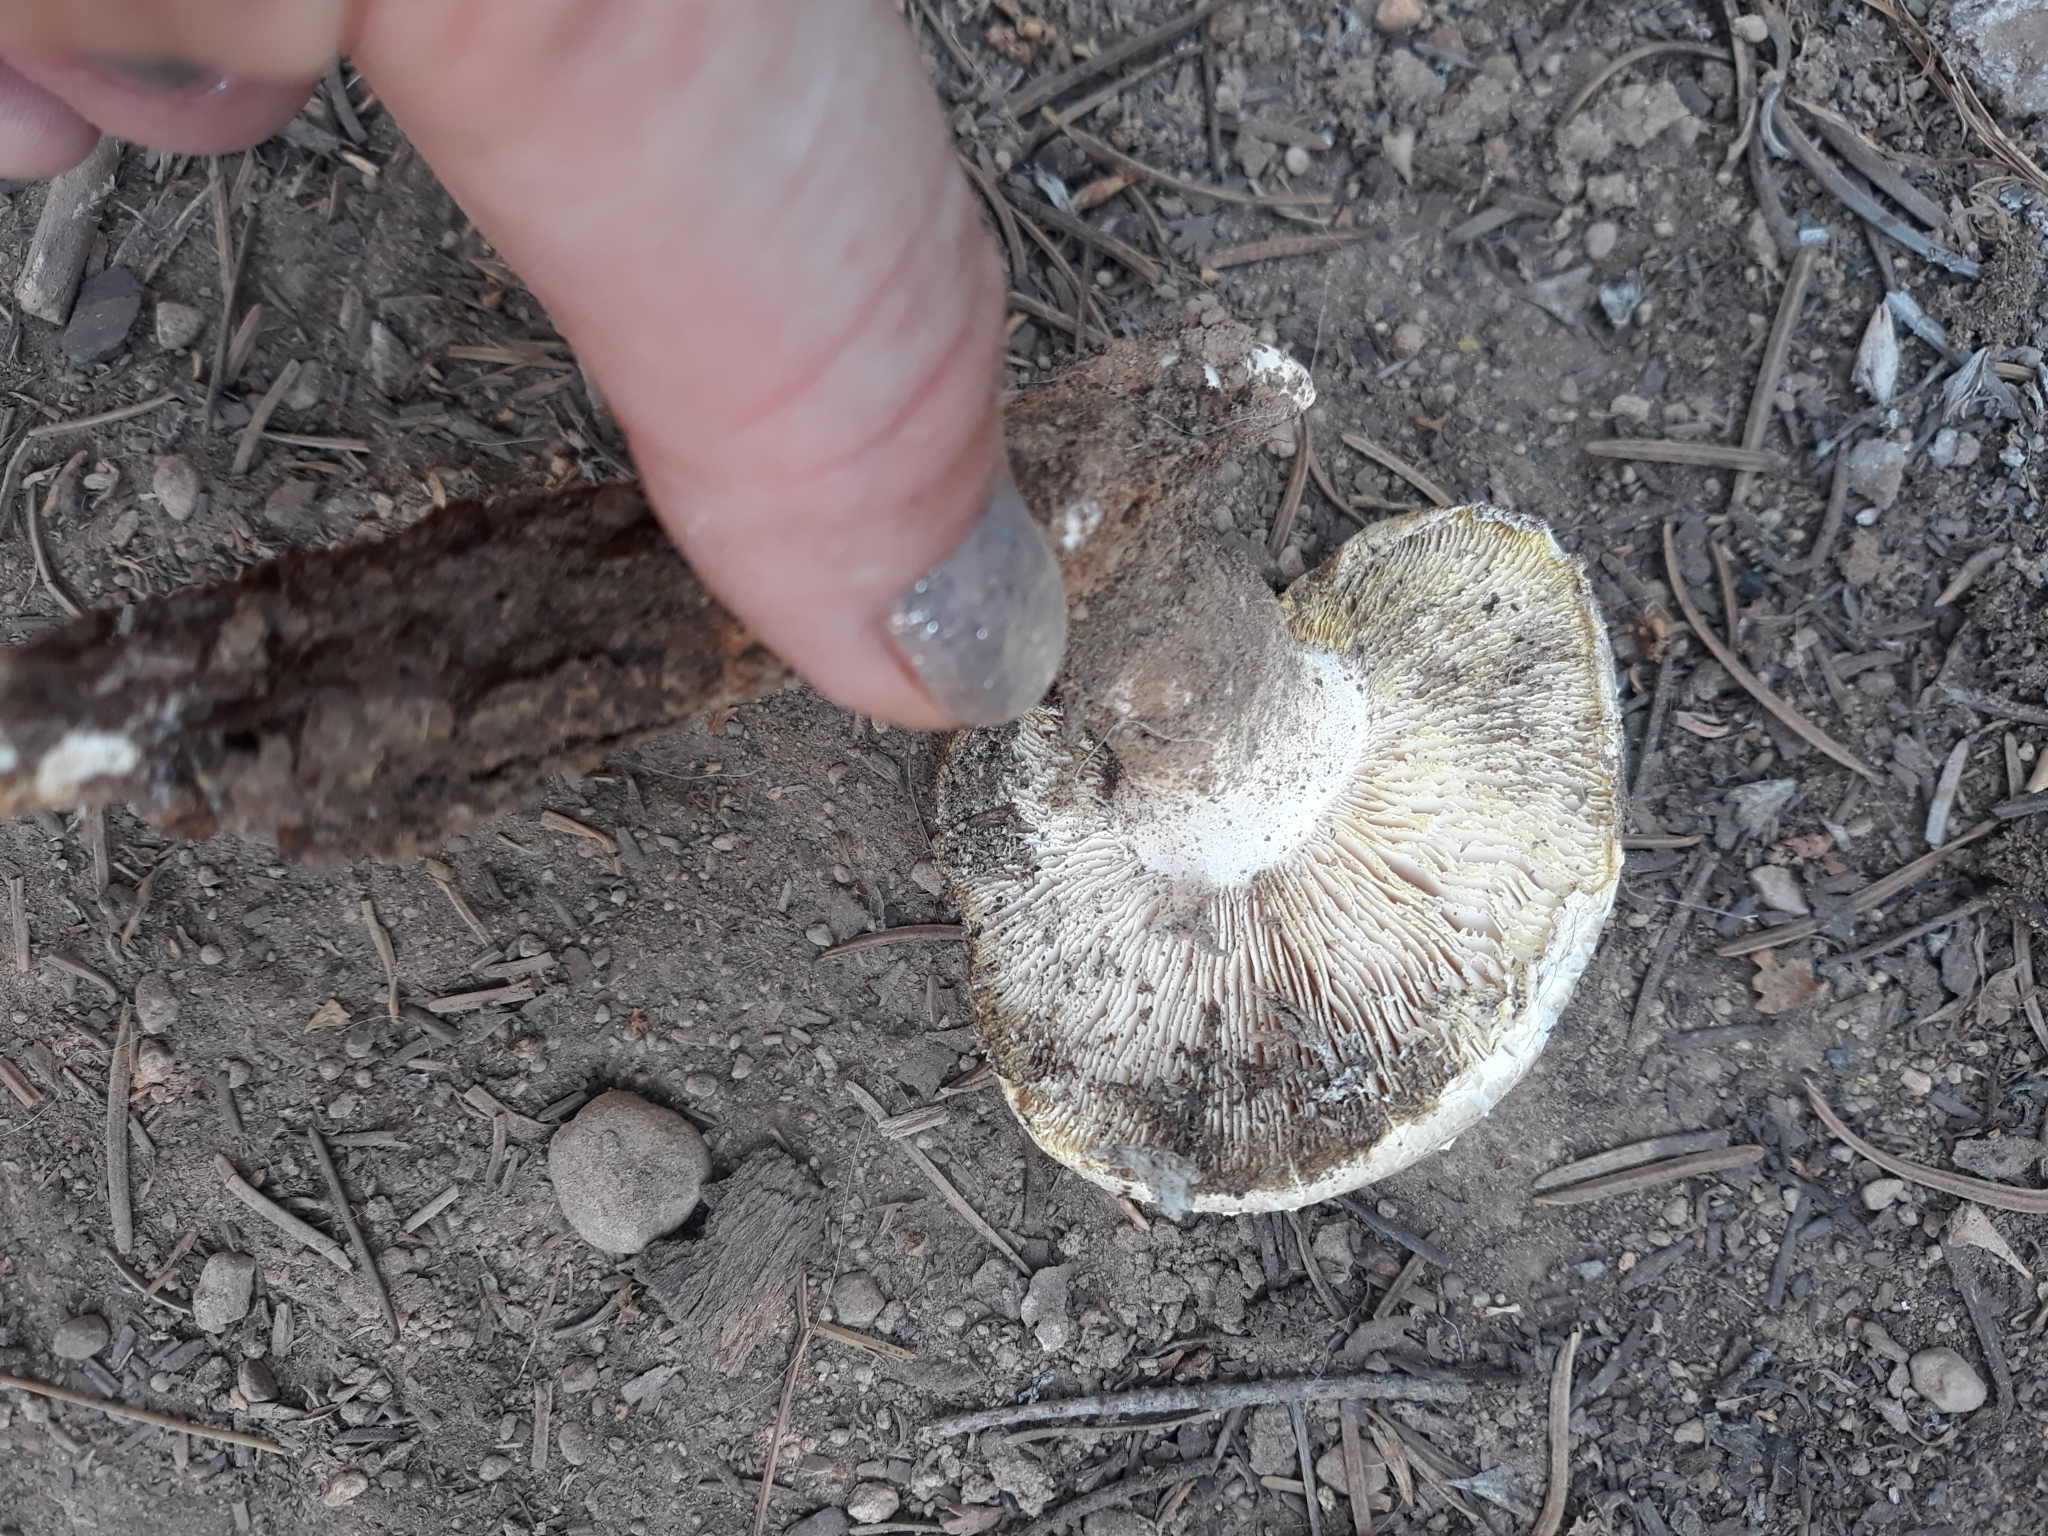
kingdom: Fungi
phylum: Basidiomycota
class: Agaricomycetes
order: Gloeophyllales
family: Gloeophyllaceae
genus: Neolentinus
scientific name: Neolentinus ponderosus
